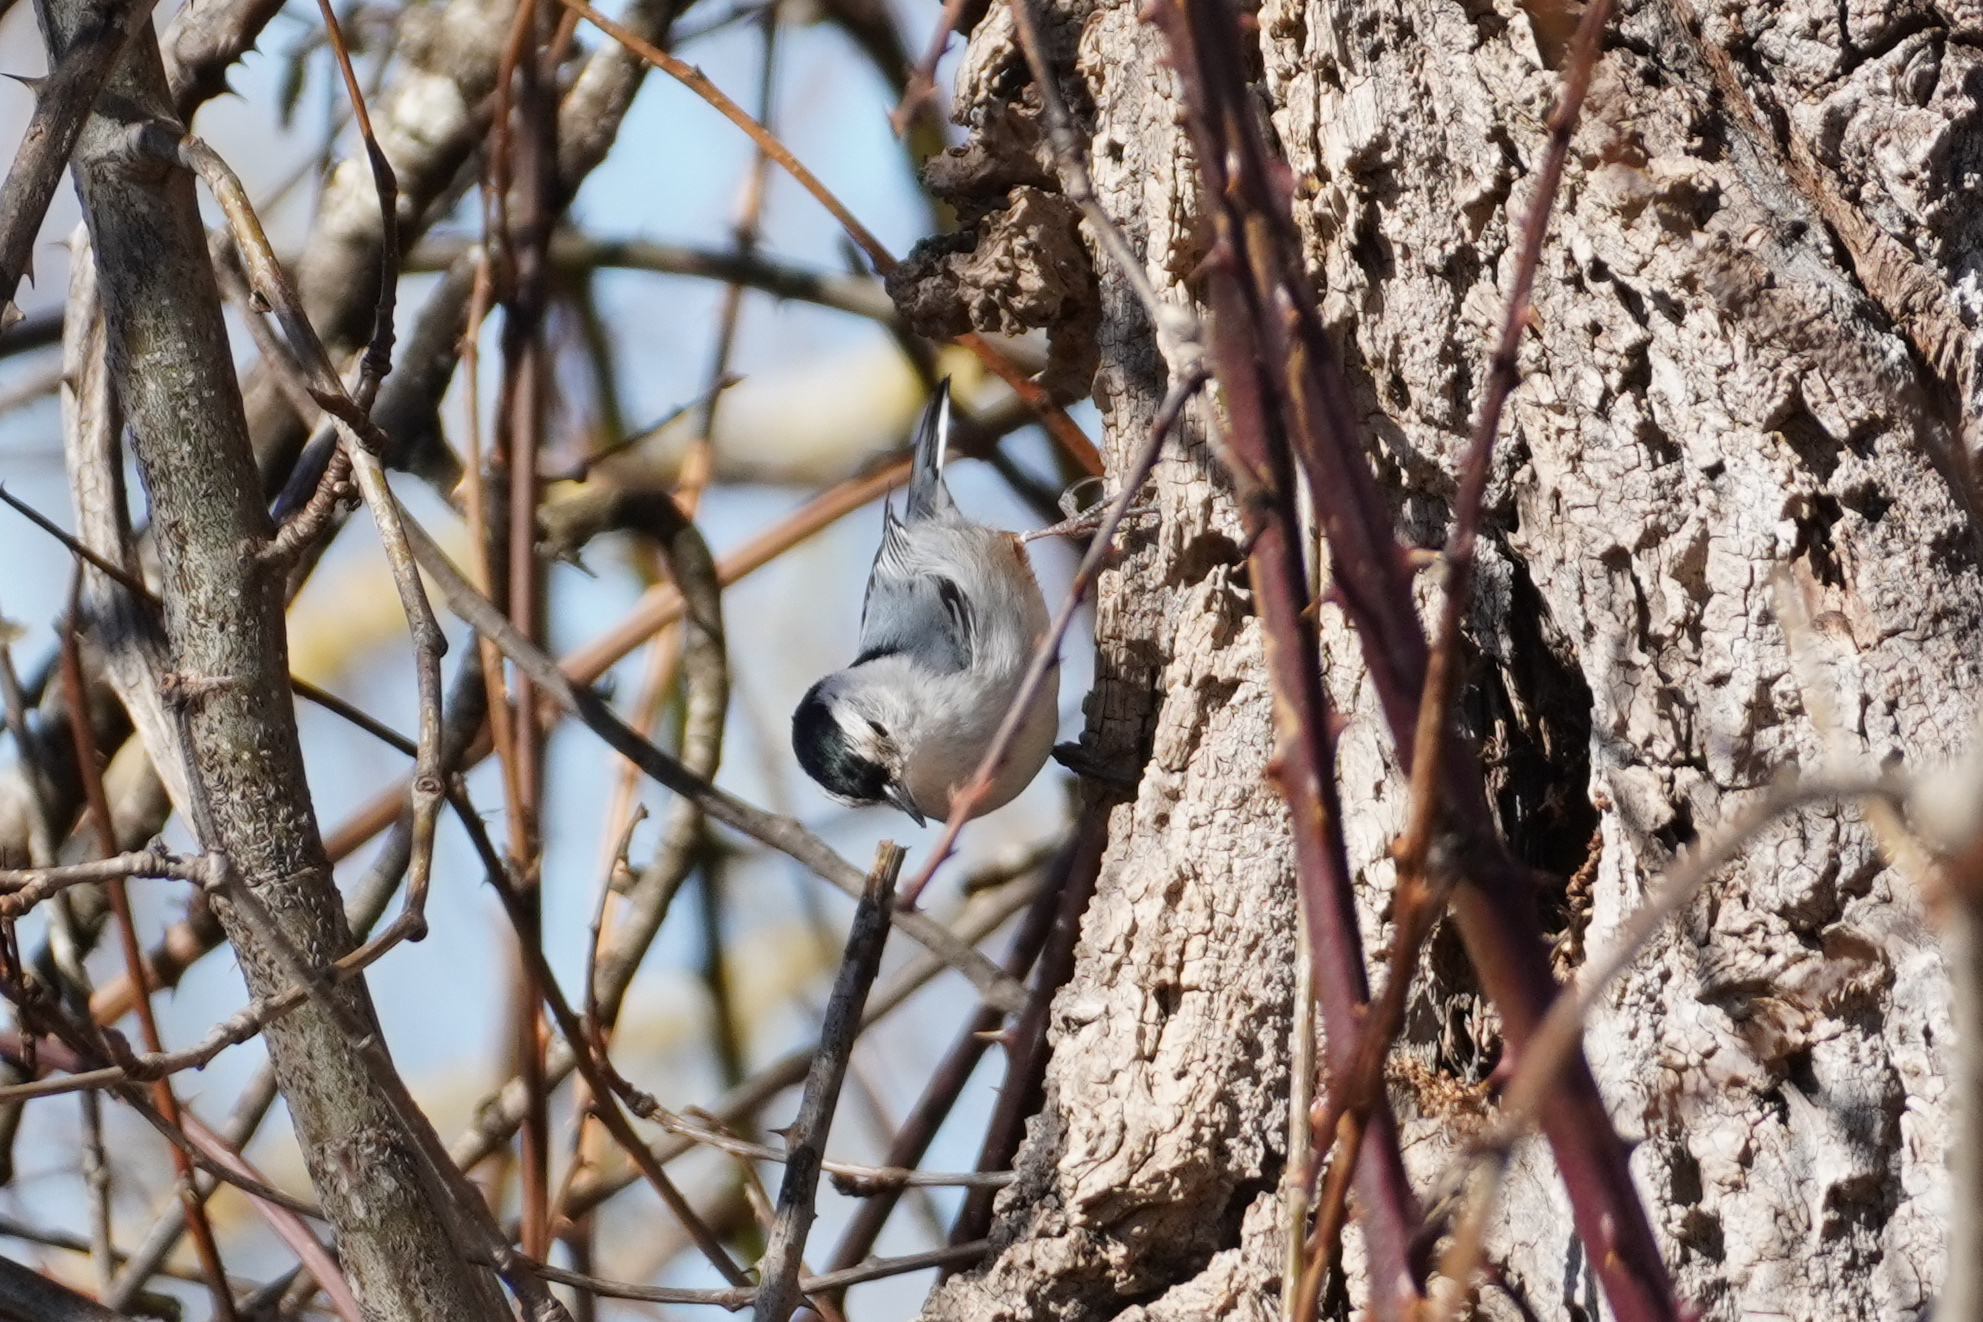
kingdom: Animalia
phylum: Chordata
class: Aves
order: Passeriformes
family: Sittidae
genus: Sitta
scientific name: Sitta carolinensis
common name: White-breasted nuthatch
